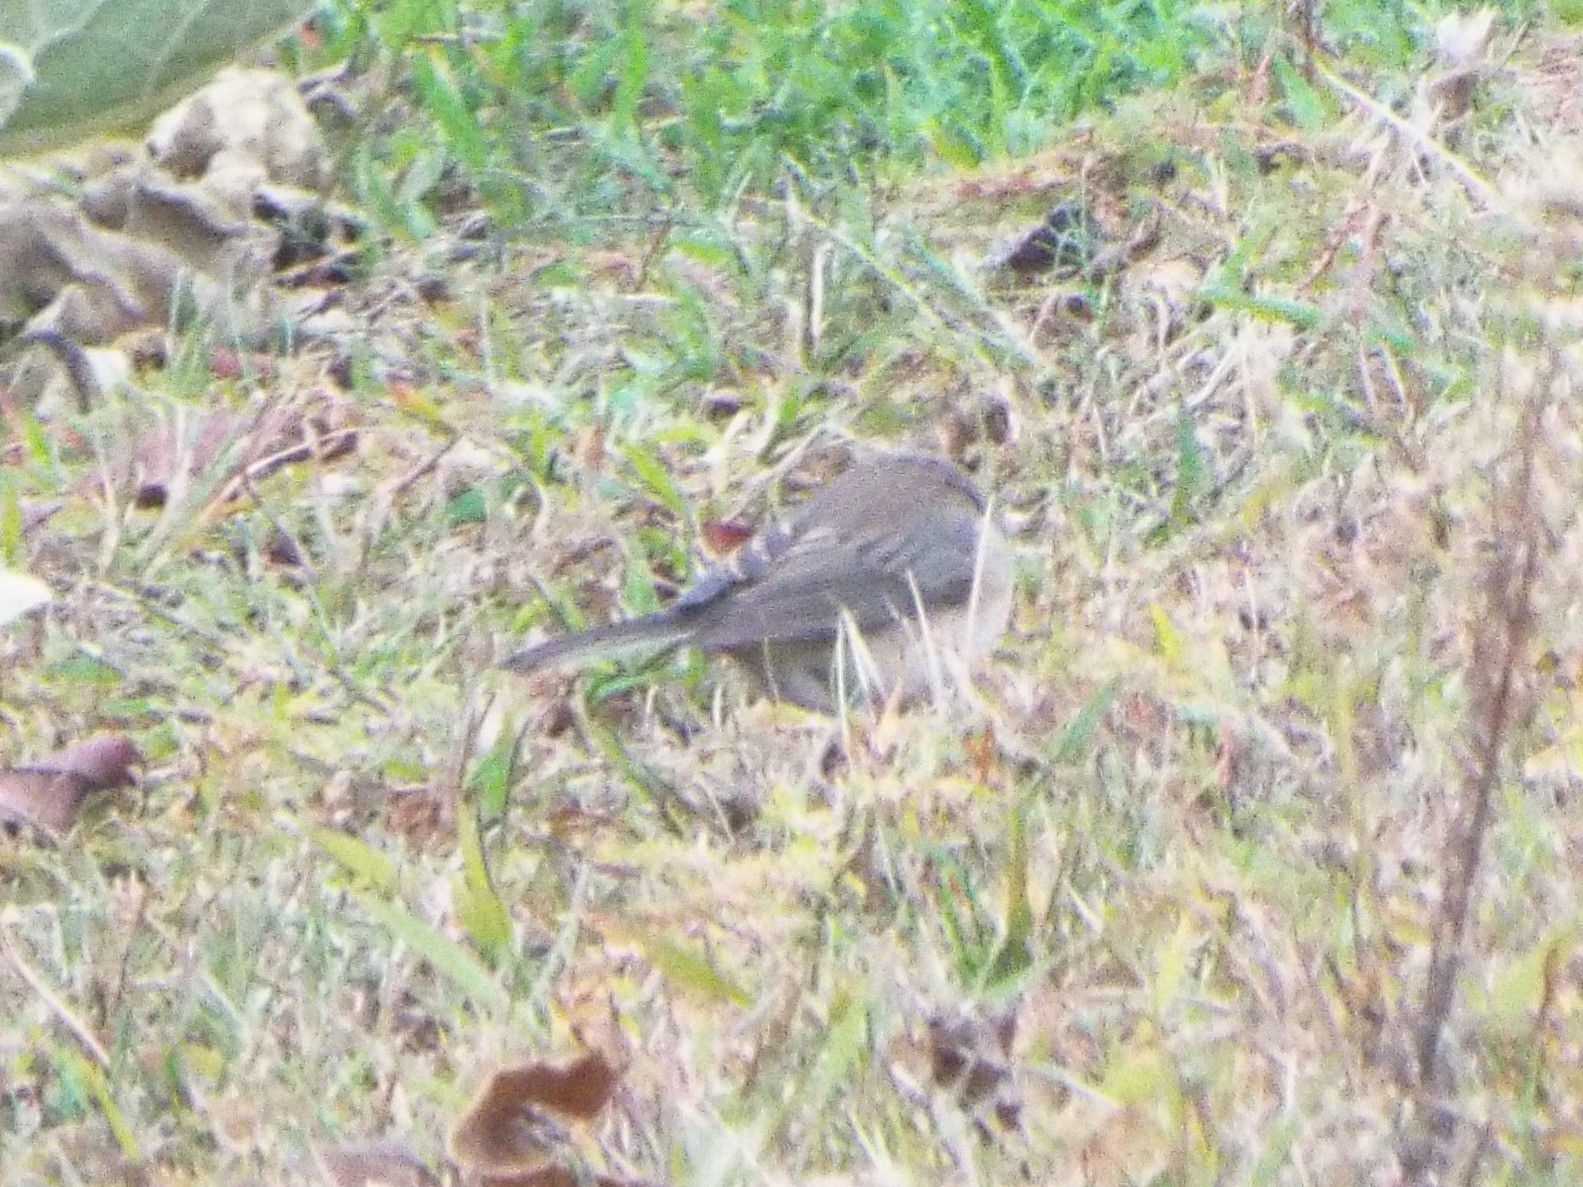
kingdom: Animalia
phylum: Chordata
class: Aves
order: Passeriformes
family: Passerellidae
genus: Junco
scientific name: Junco hyemalis
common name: Dark-eyed junco
